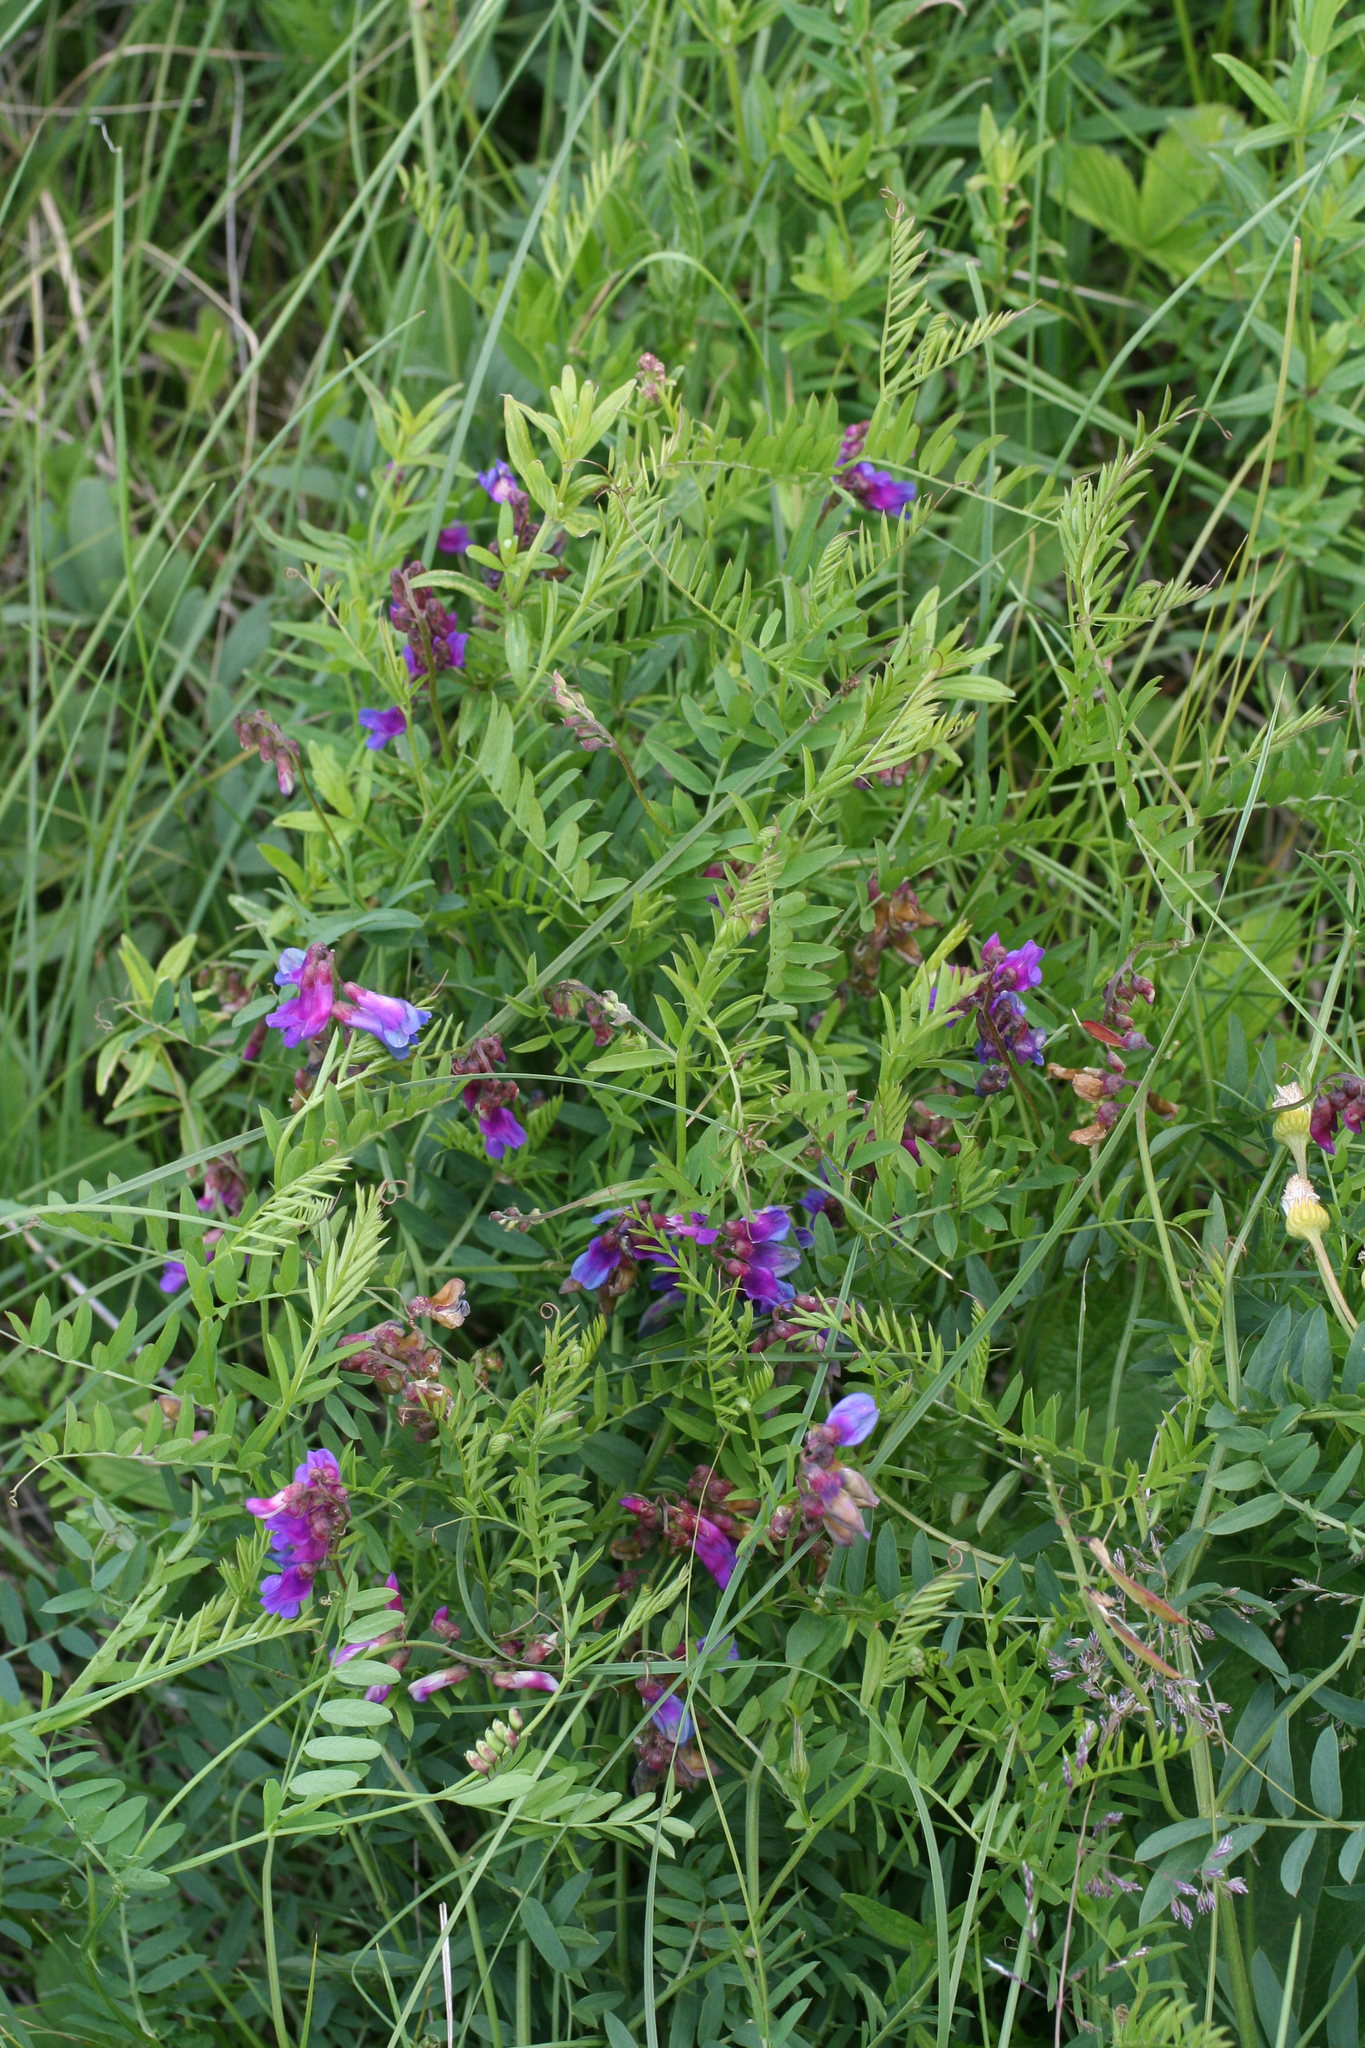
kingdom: Plantae
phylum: Tracheophyta
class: Magnoliopsida
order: Fabales
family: Fabaceae
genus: Vicia
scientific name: Vicia multicaulis
